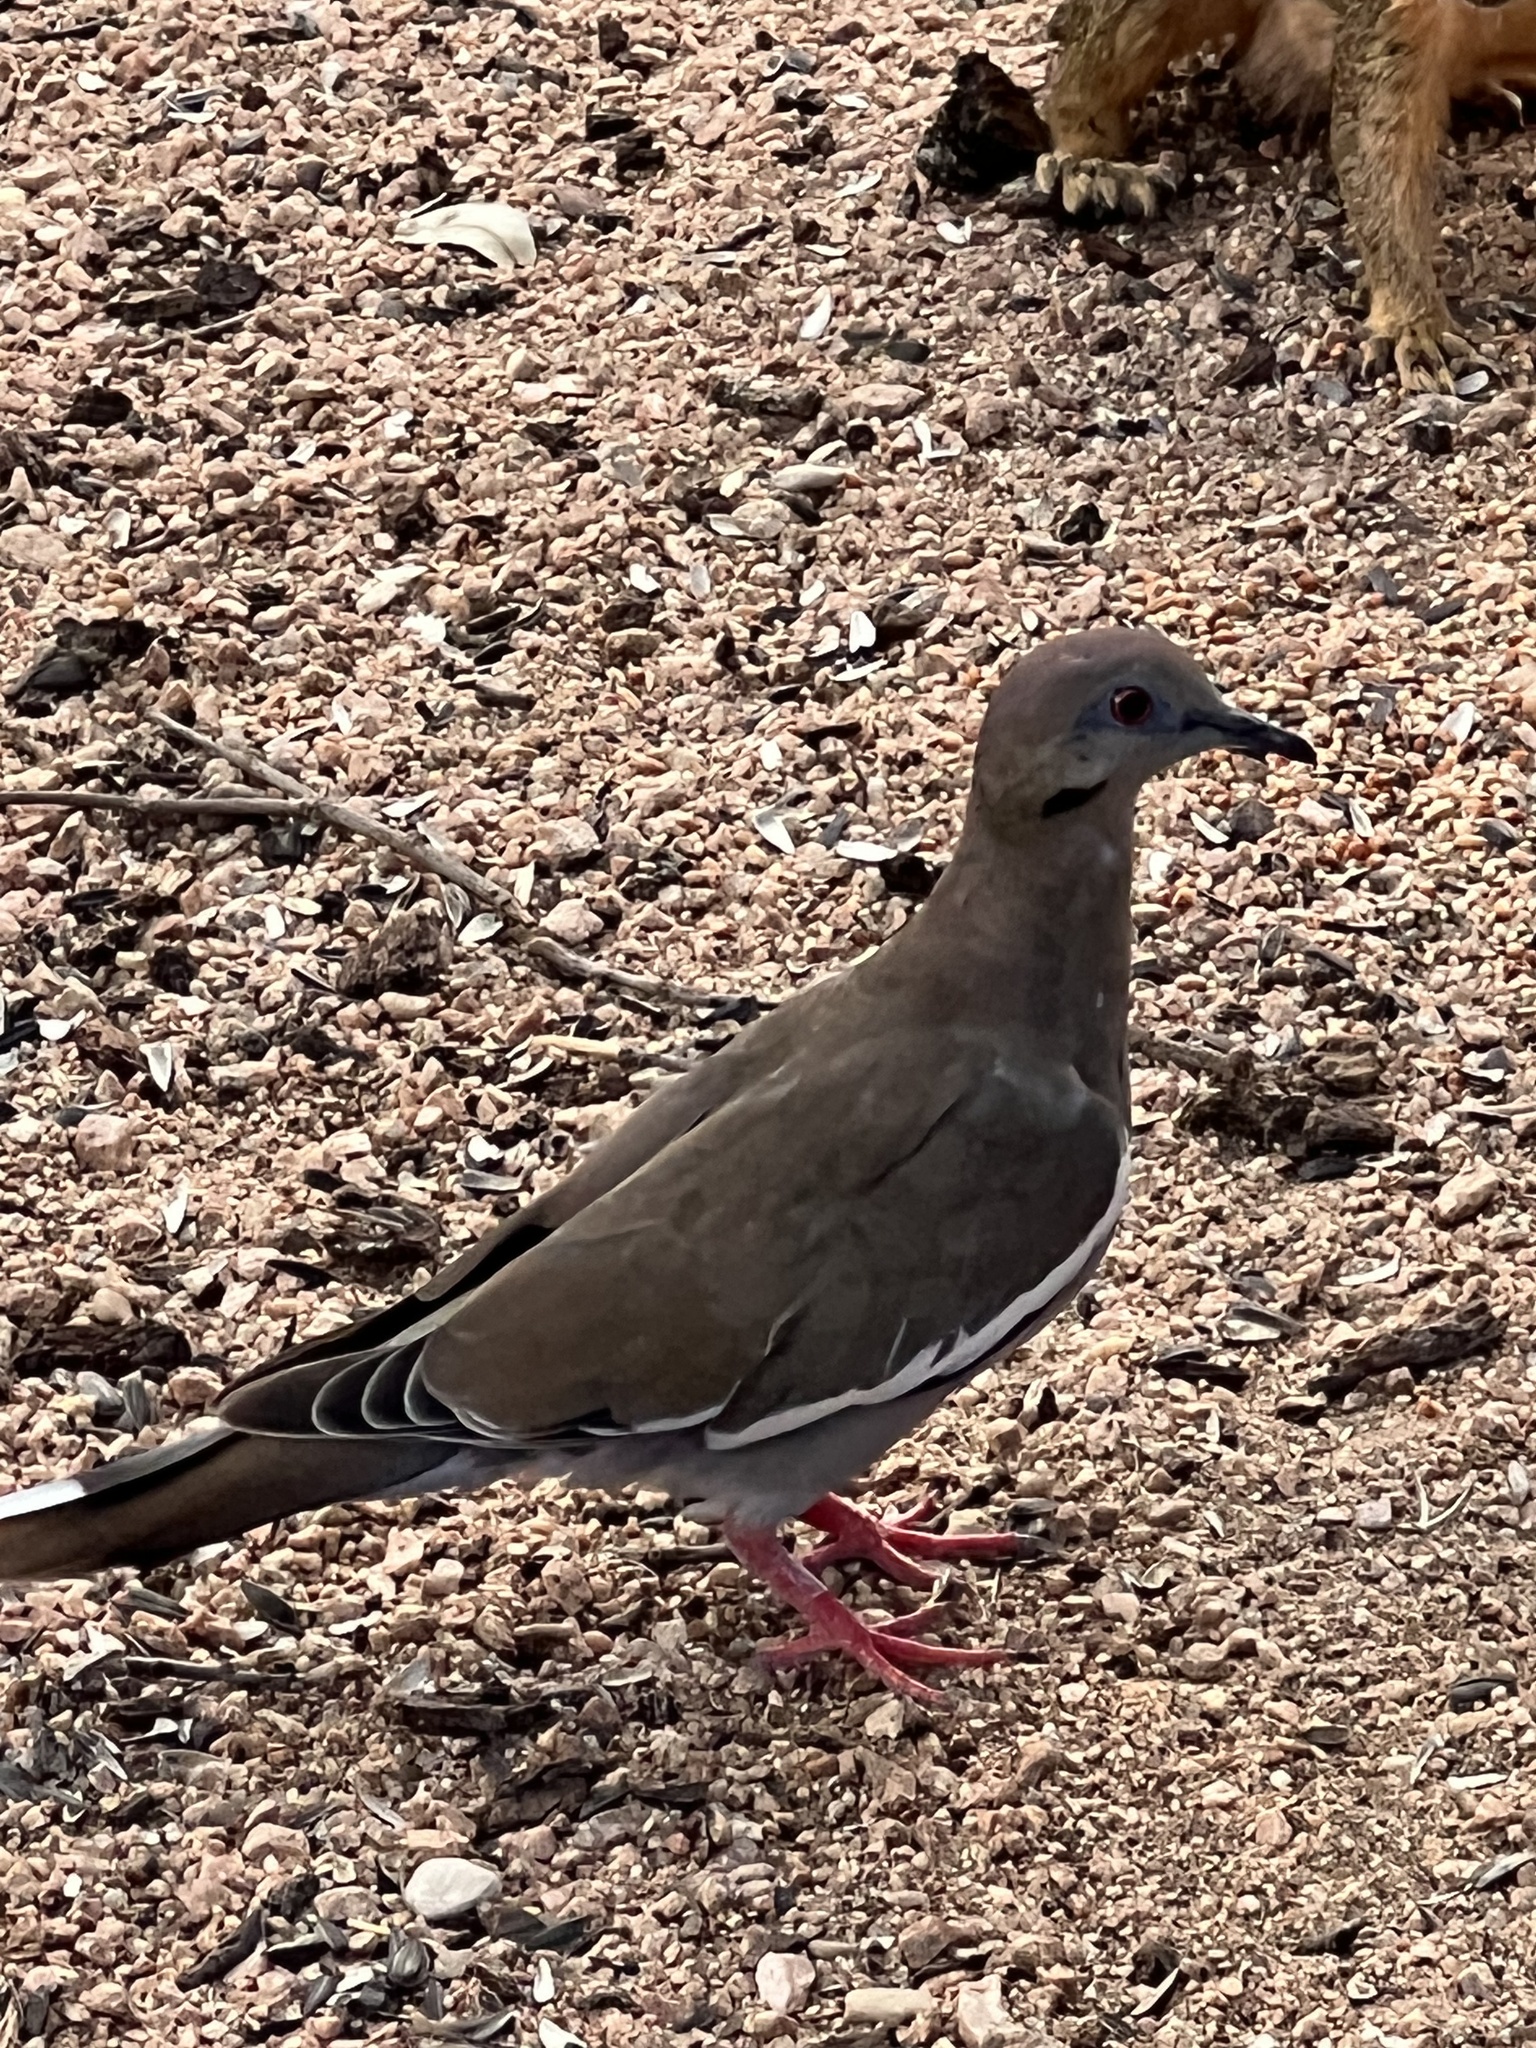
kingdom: Animalia
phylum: Chordata
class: Aves
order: Columbiformes
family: Columbidae
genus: Zenaida
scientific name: Zenaida asiatica
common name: White-winged dove
